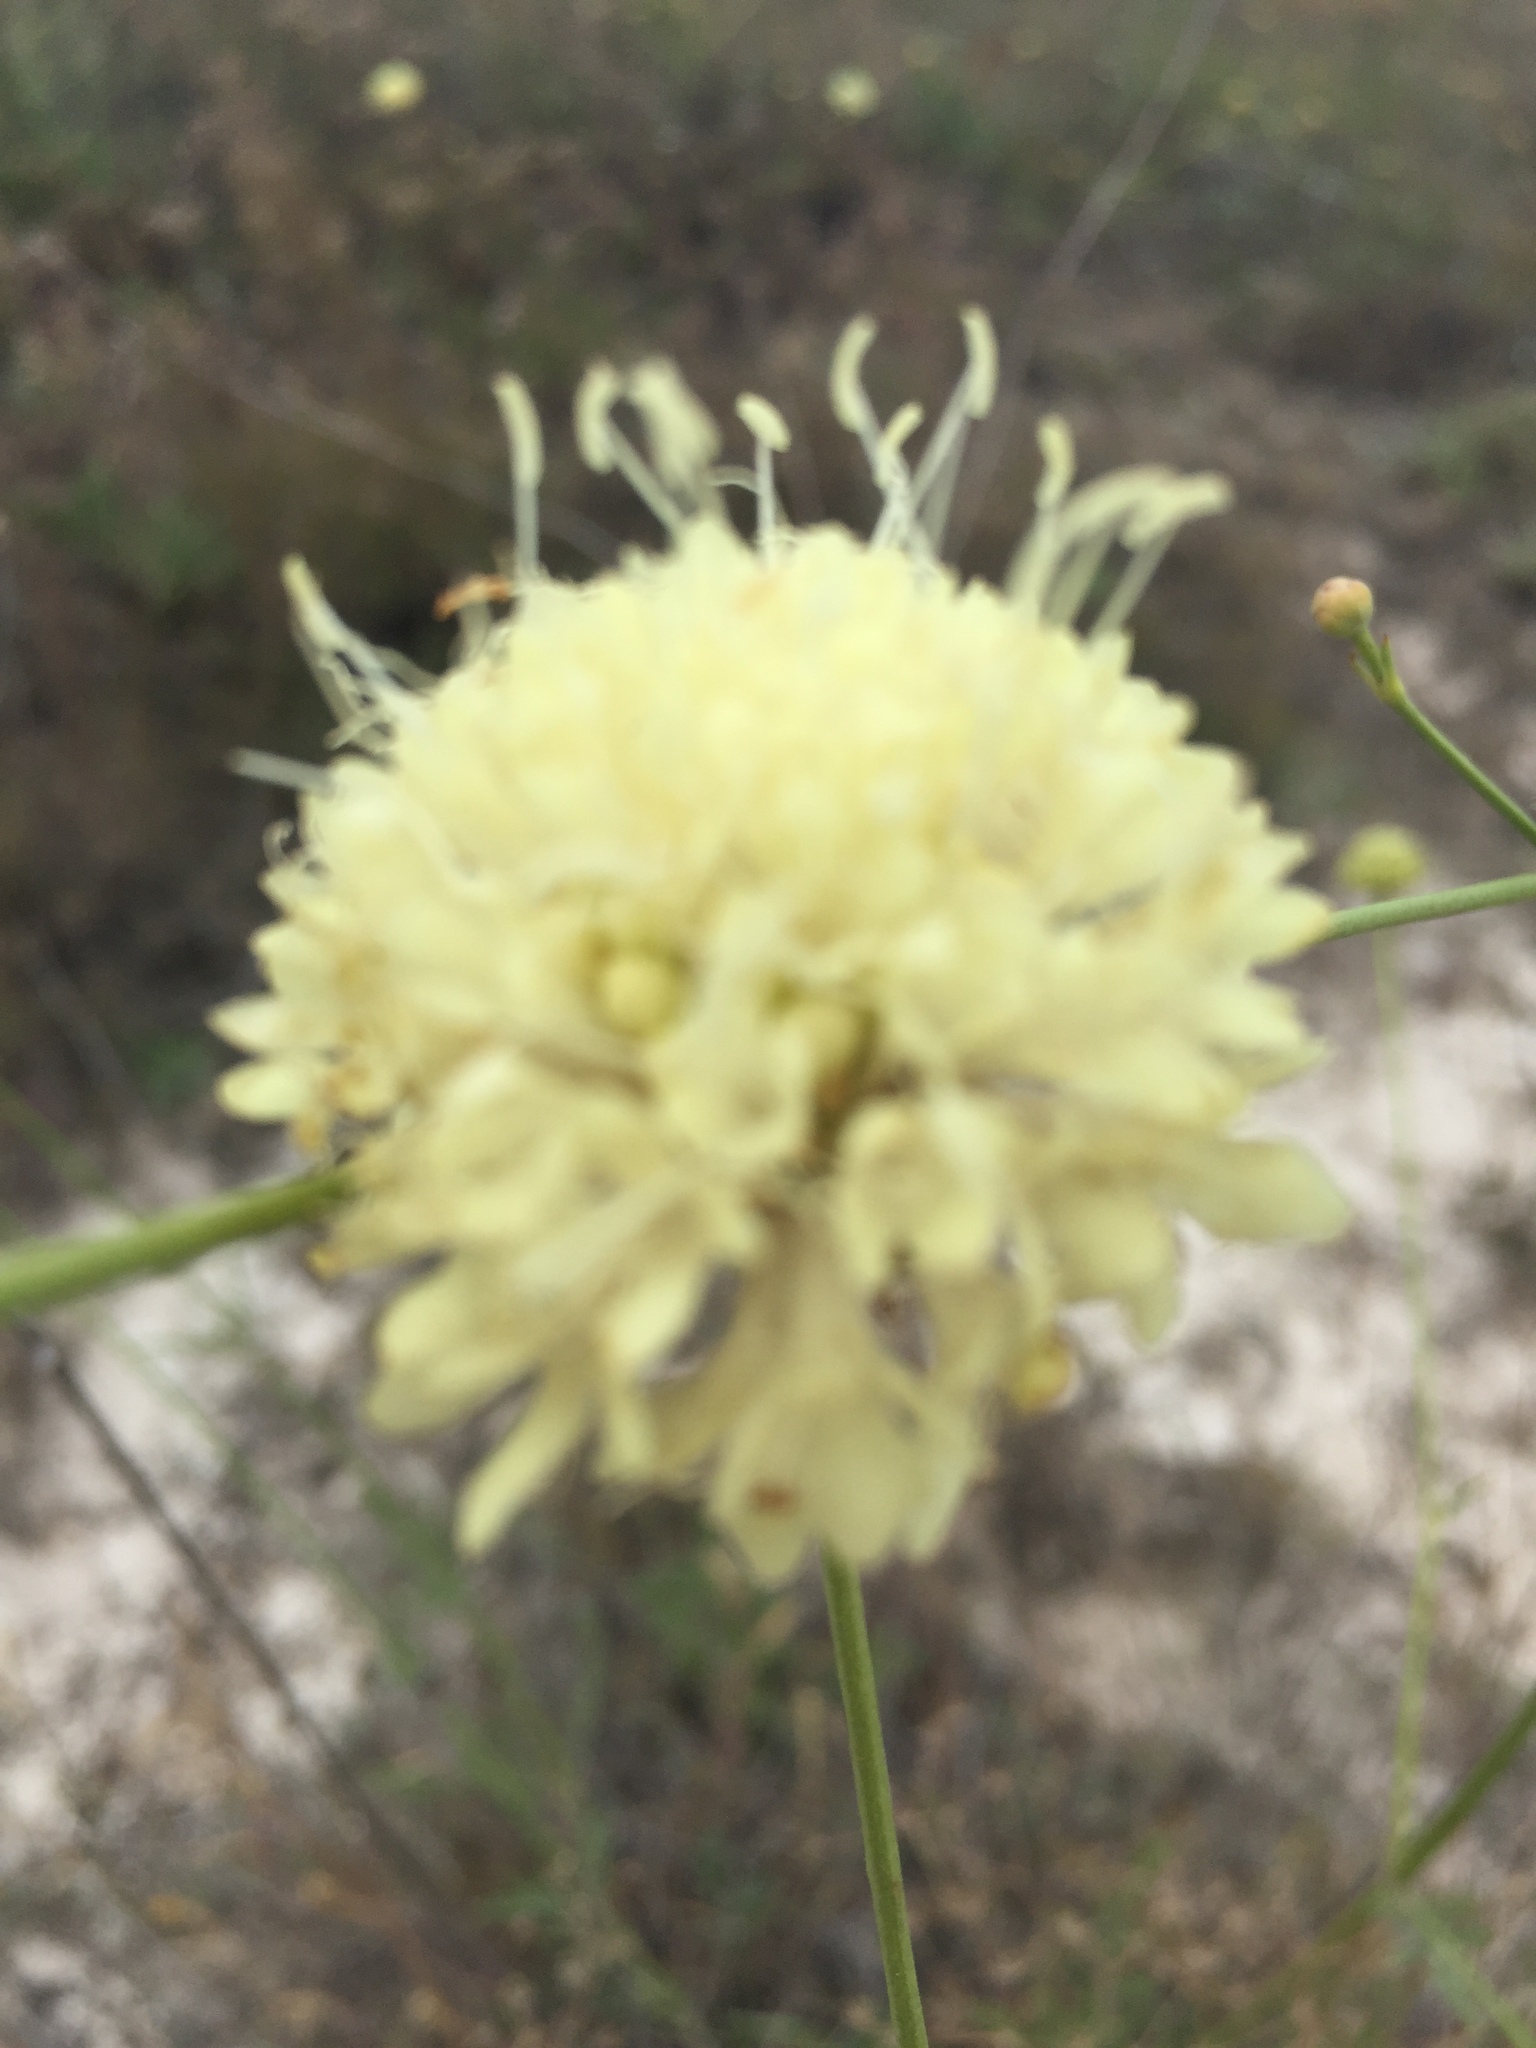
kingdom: Plantae
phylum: Tracheophyta
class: Magnoliopsida
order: Dipsacales
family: Caprifoliaceae
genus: Cephalaria
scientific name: Cephalaria uralensis
